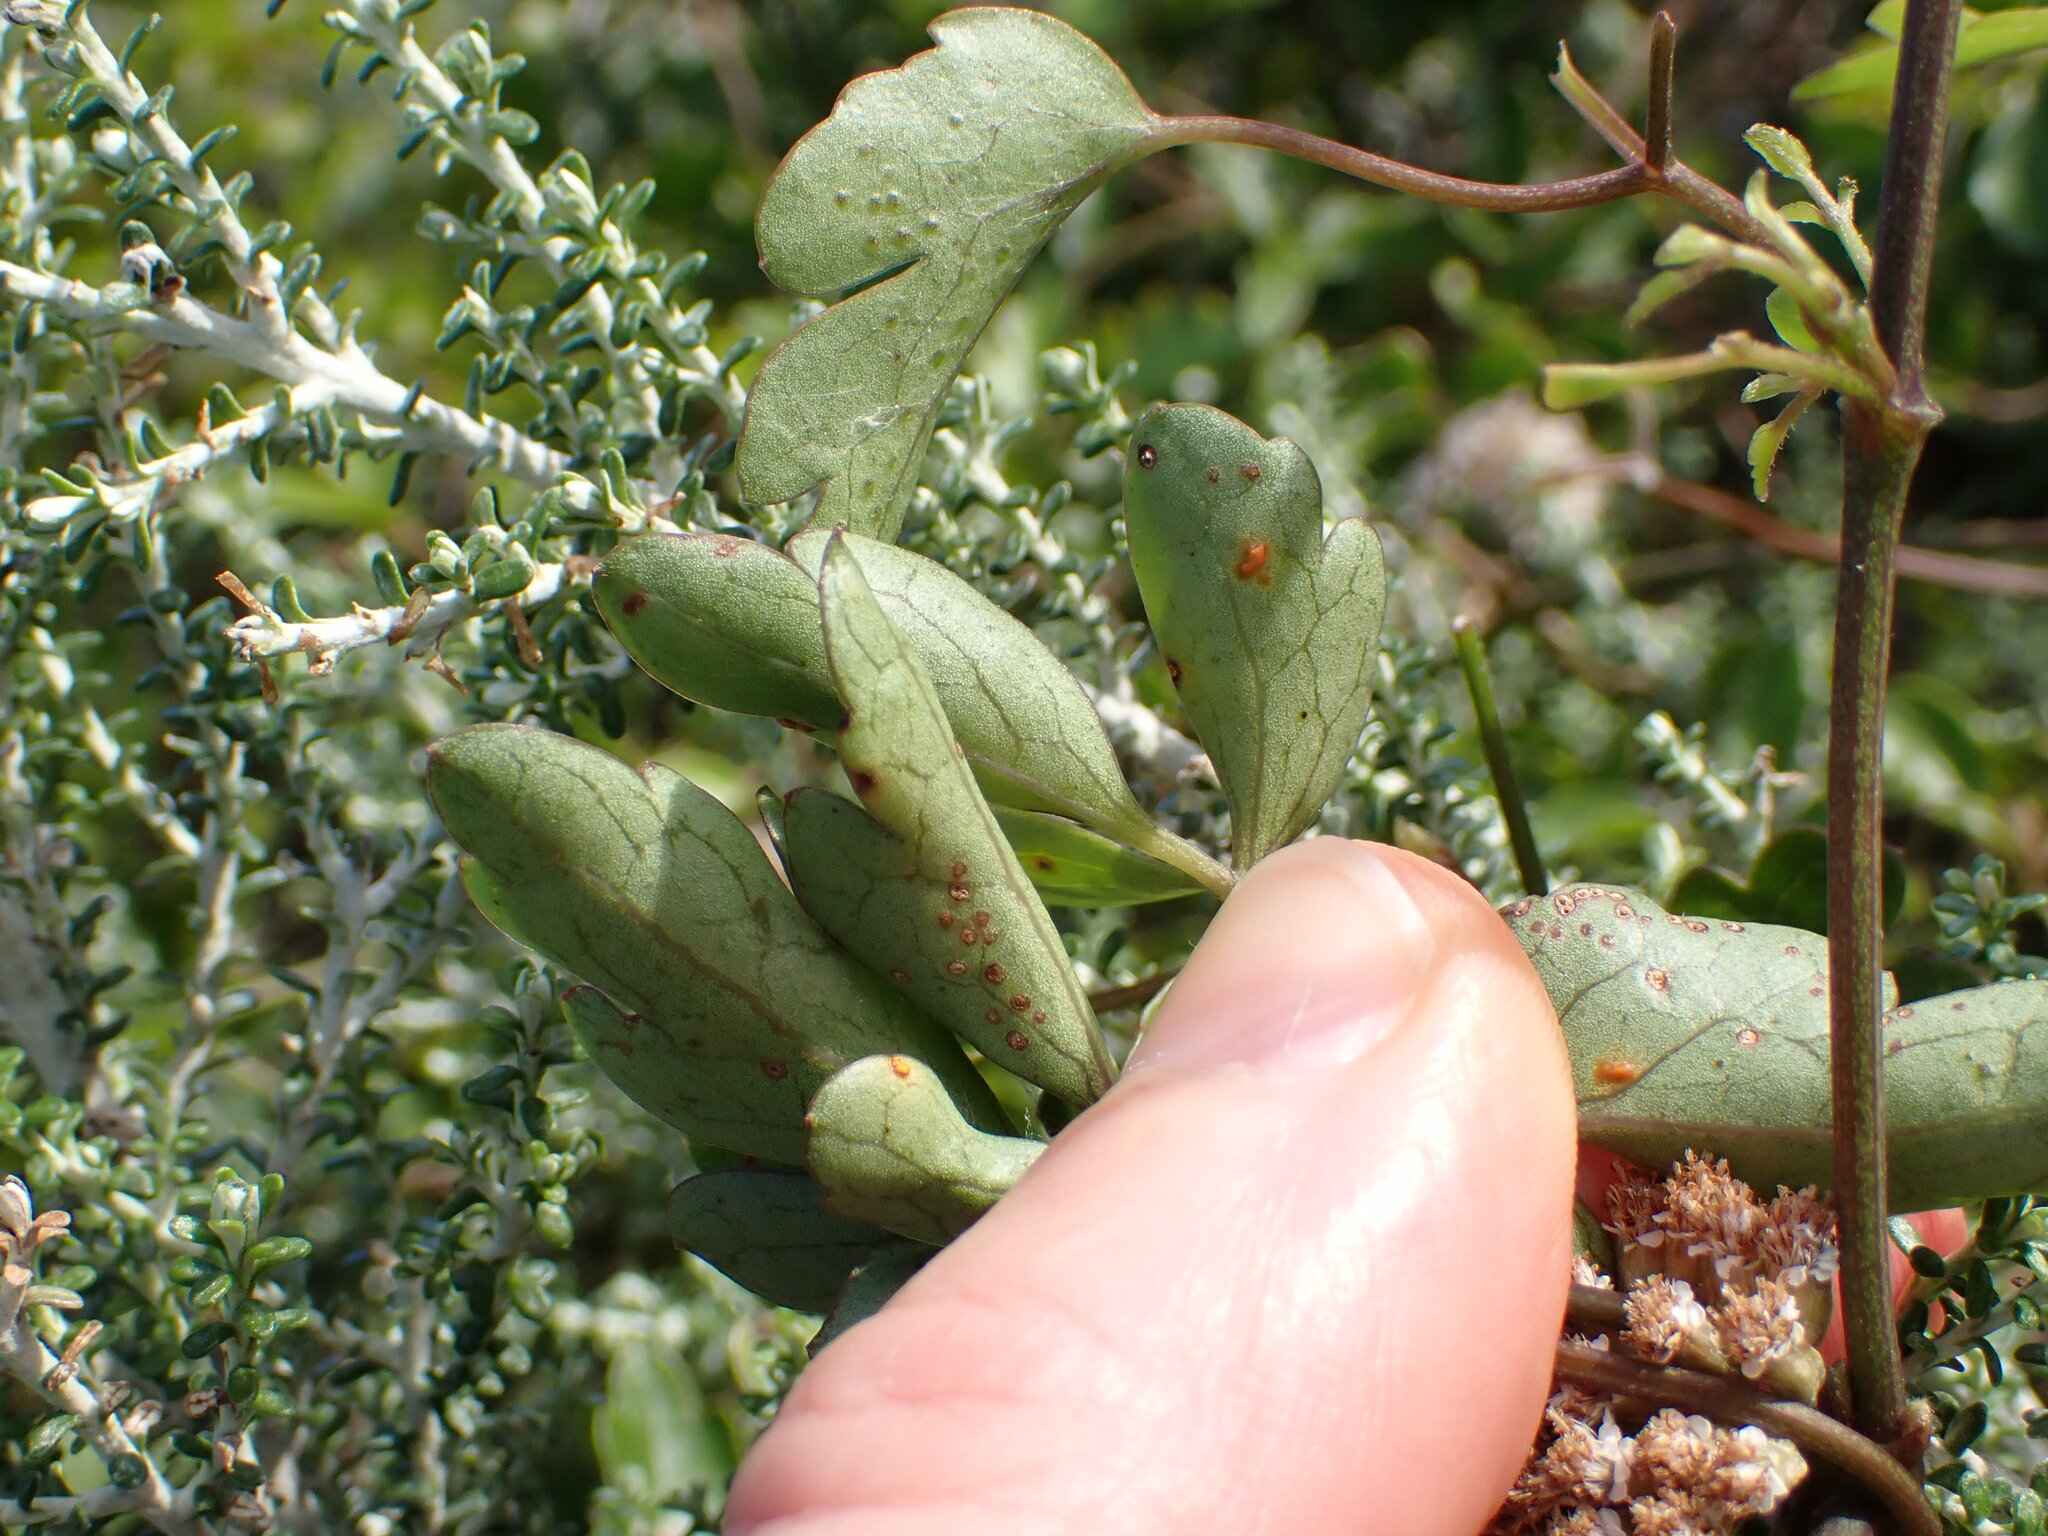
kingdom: Fungi
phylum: Basidiomycota
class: Pucciniomycetes
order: Pucciniales
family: Pucciniaceae
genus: Puccinia
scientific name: Puccinia otagensis
